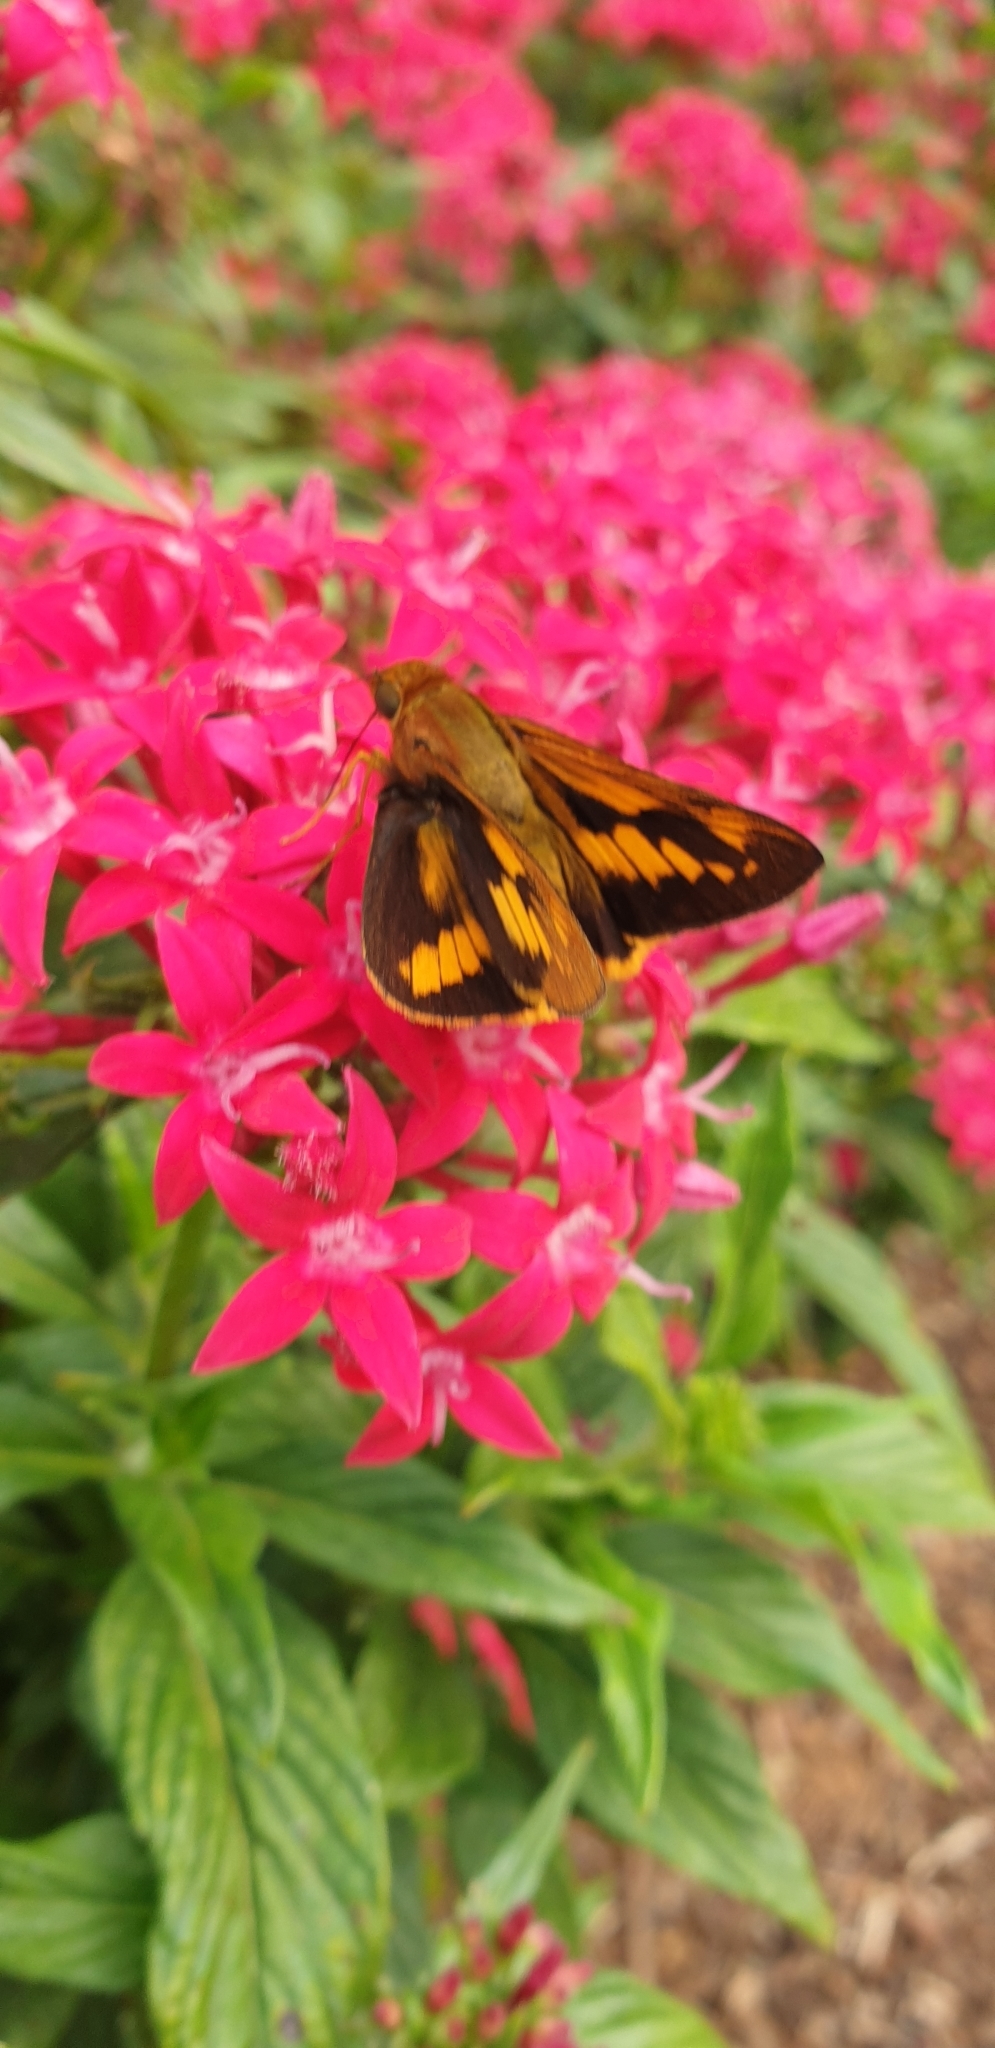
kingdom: Animalia
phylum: Arthropoda
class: Insecta
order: Lepidoptera
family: Hesperiidae
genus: Cephrenes
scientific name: Cephrenes augiades
